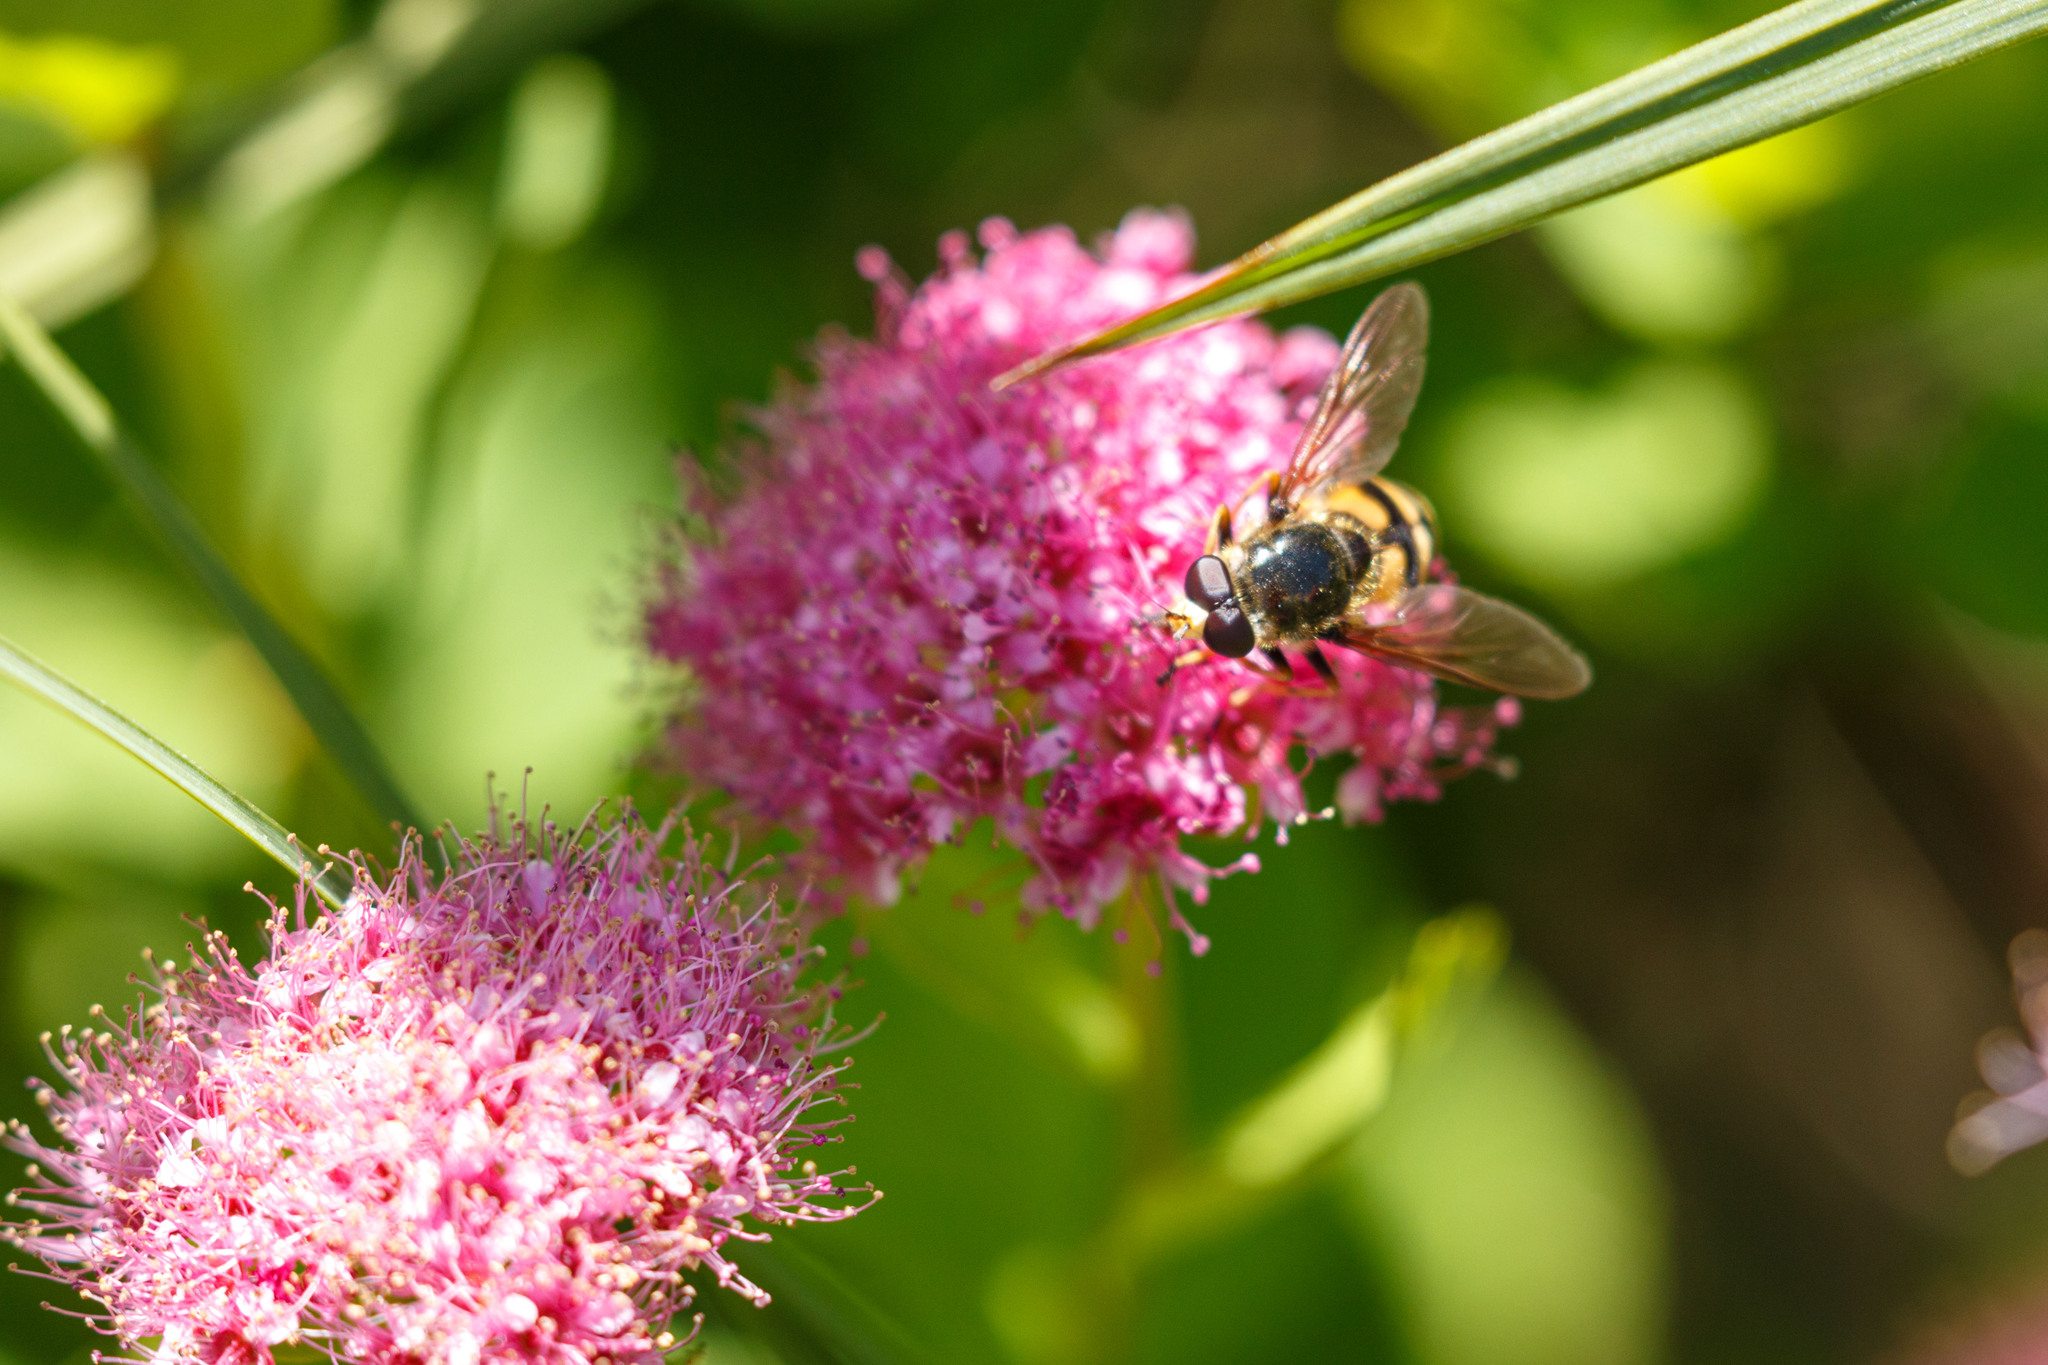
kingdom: Animalia
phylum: Arthropoda
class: Insecta
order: Diptera
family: Syrphidae
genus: Blera
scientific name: Blera scitula
